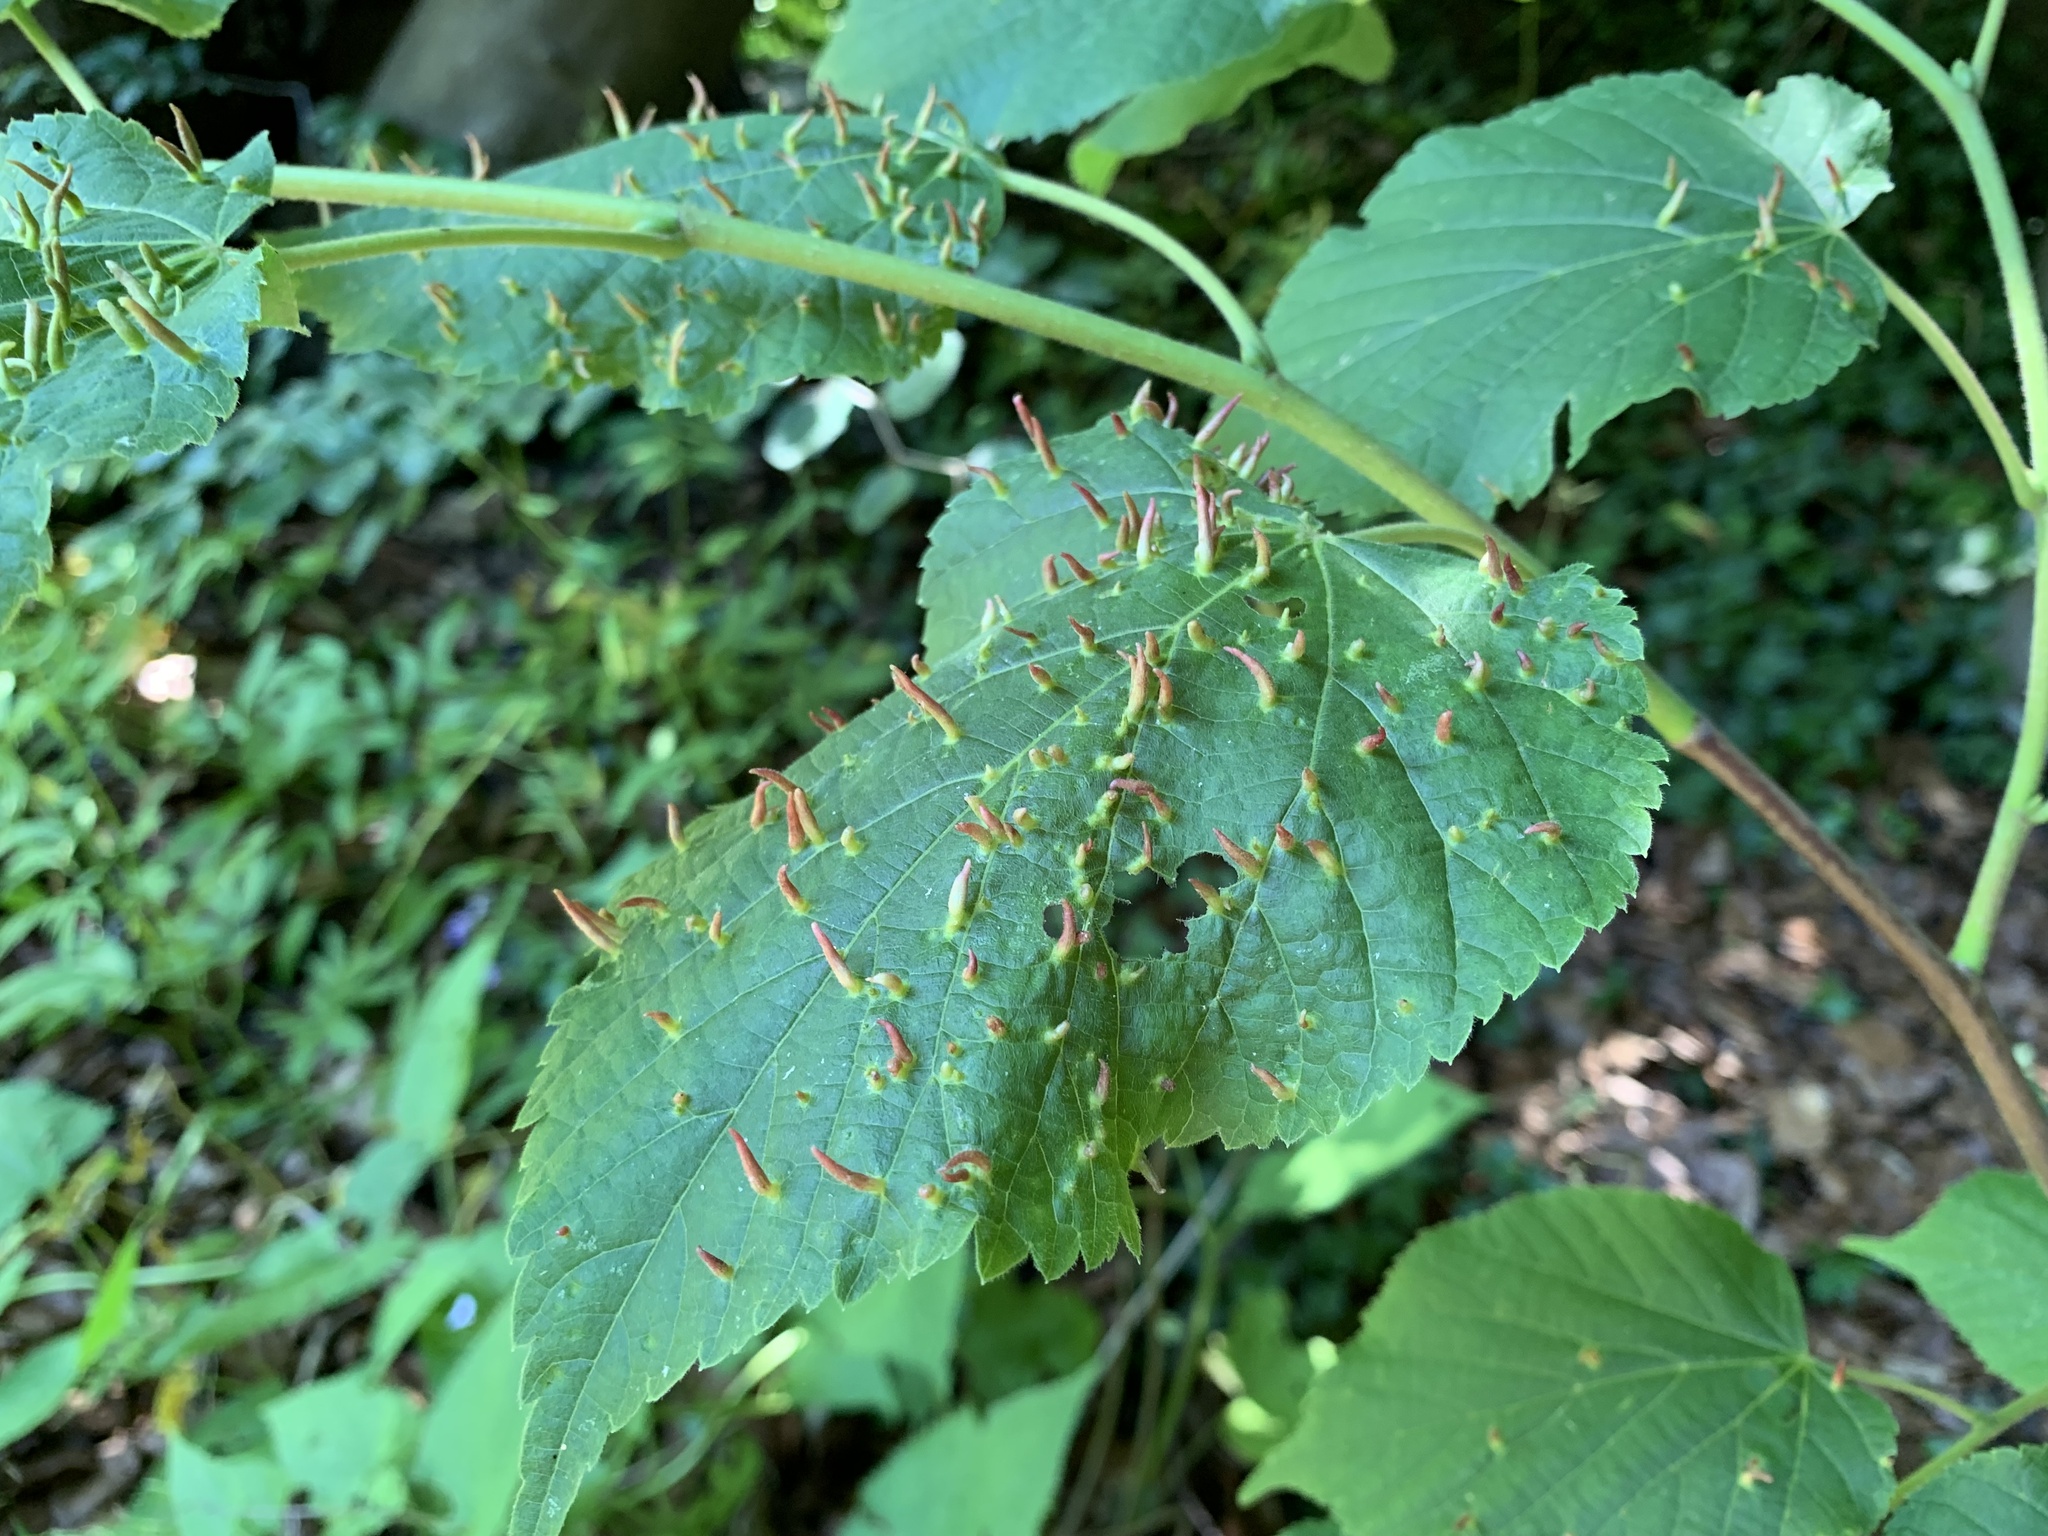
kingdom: Animalia
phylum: Arthropoda
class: Arachnida
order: Trombidiformes
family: Eriophyidae
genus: Eriophyes
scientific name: Eriophyes tiliae
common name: Red nail gall mite
